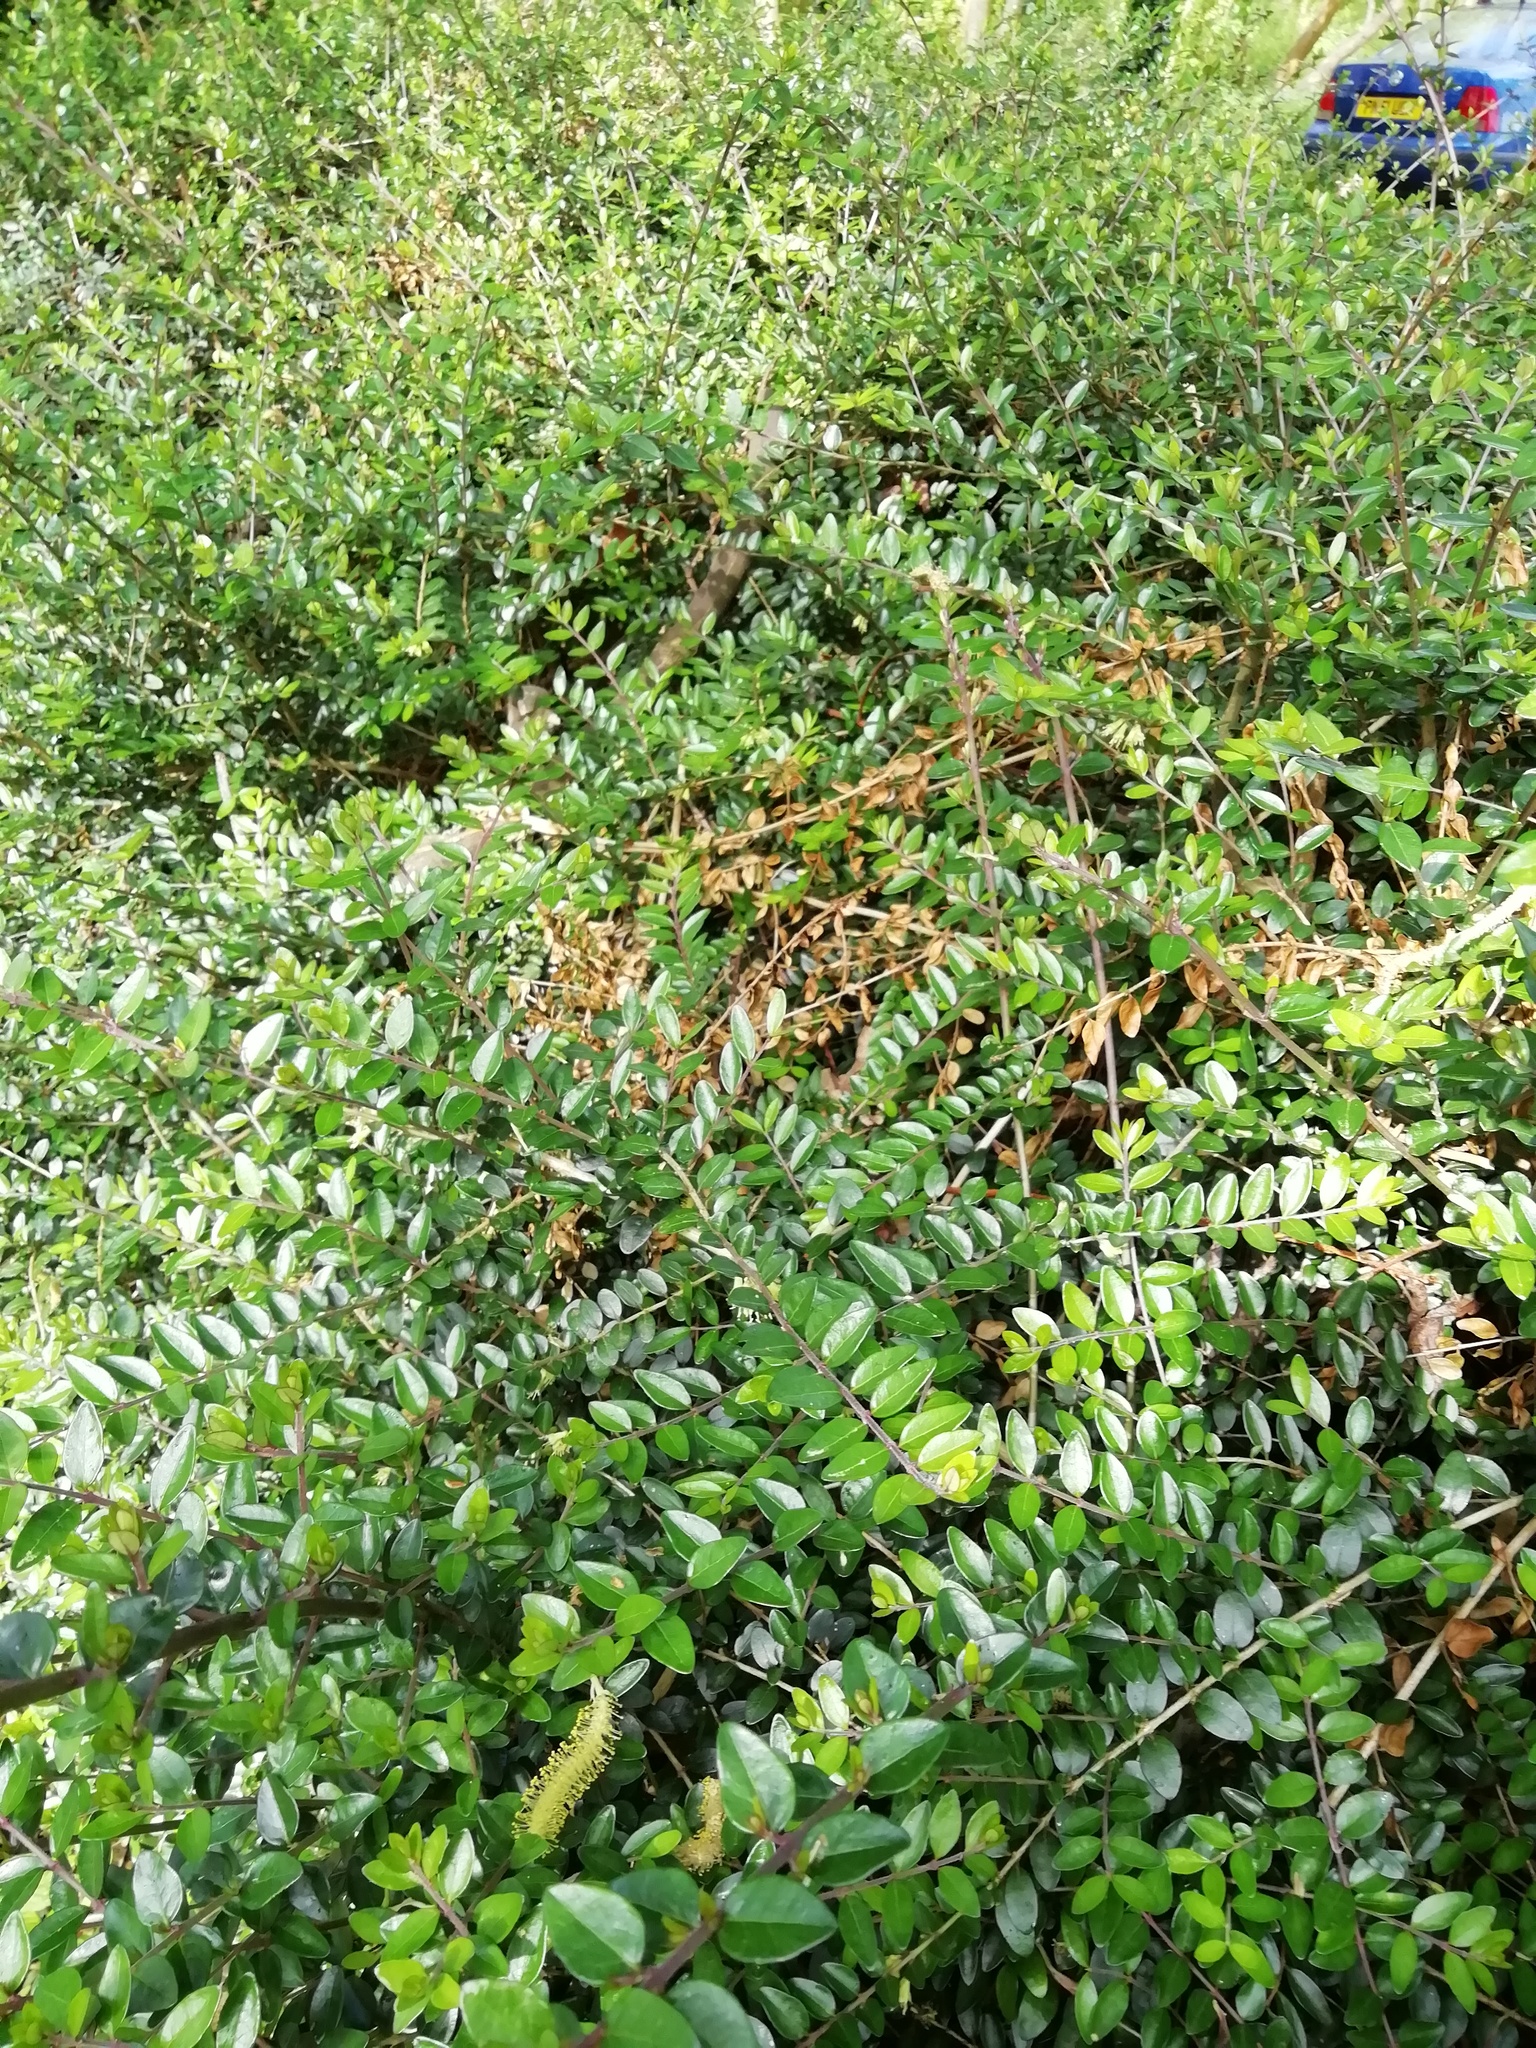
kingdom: Plantae
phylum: Tracheophyta
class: Magnoliopsida
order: Dipsacales
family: Caprifoliaceae
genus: Lonicera
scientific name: Lonicera ligustrina
